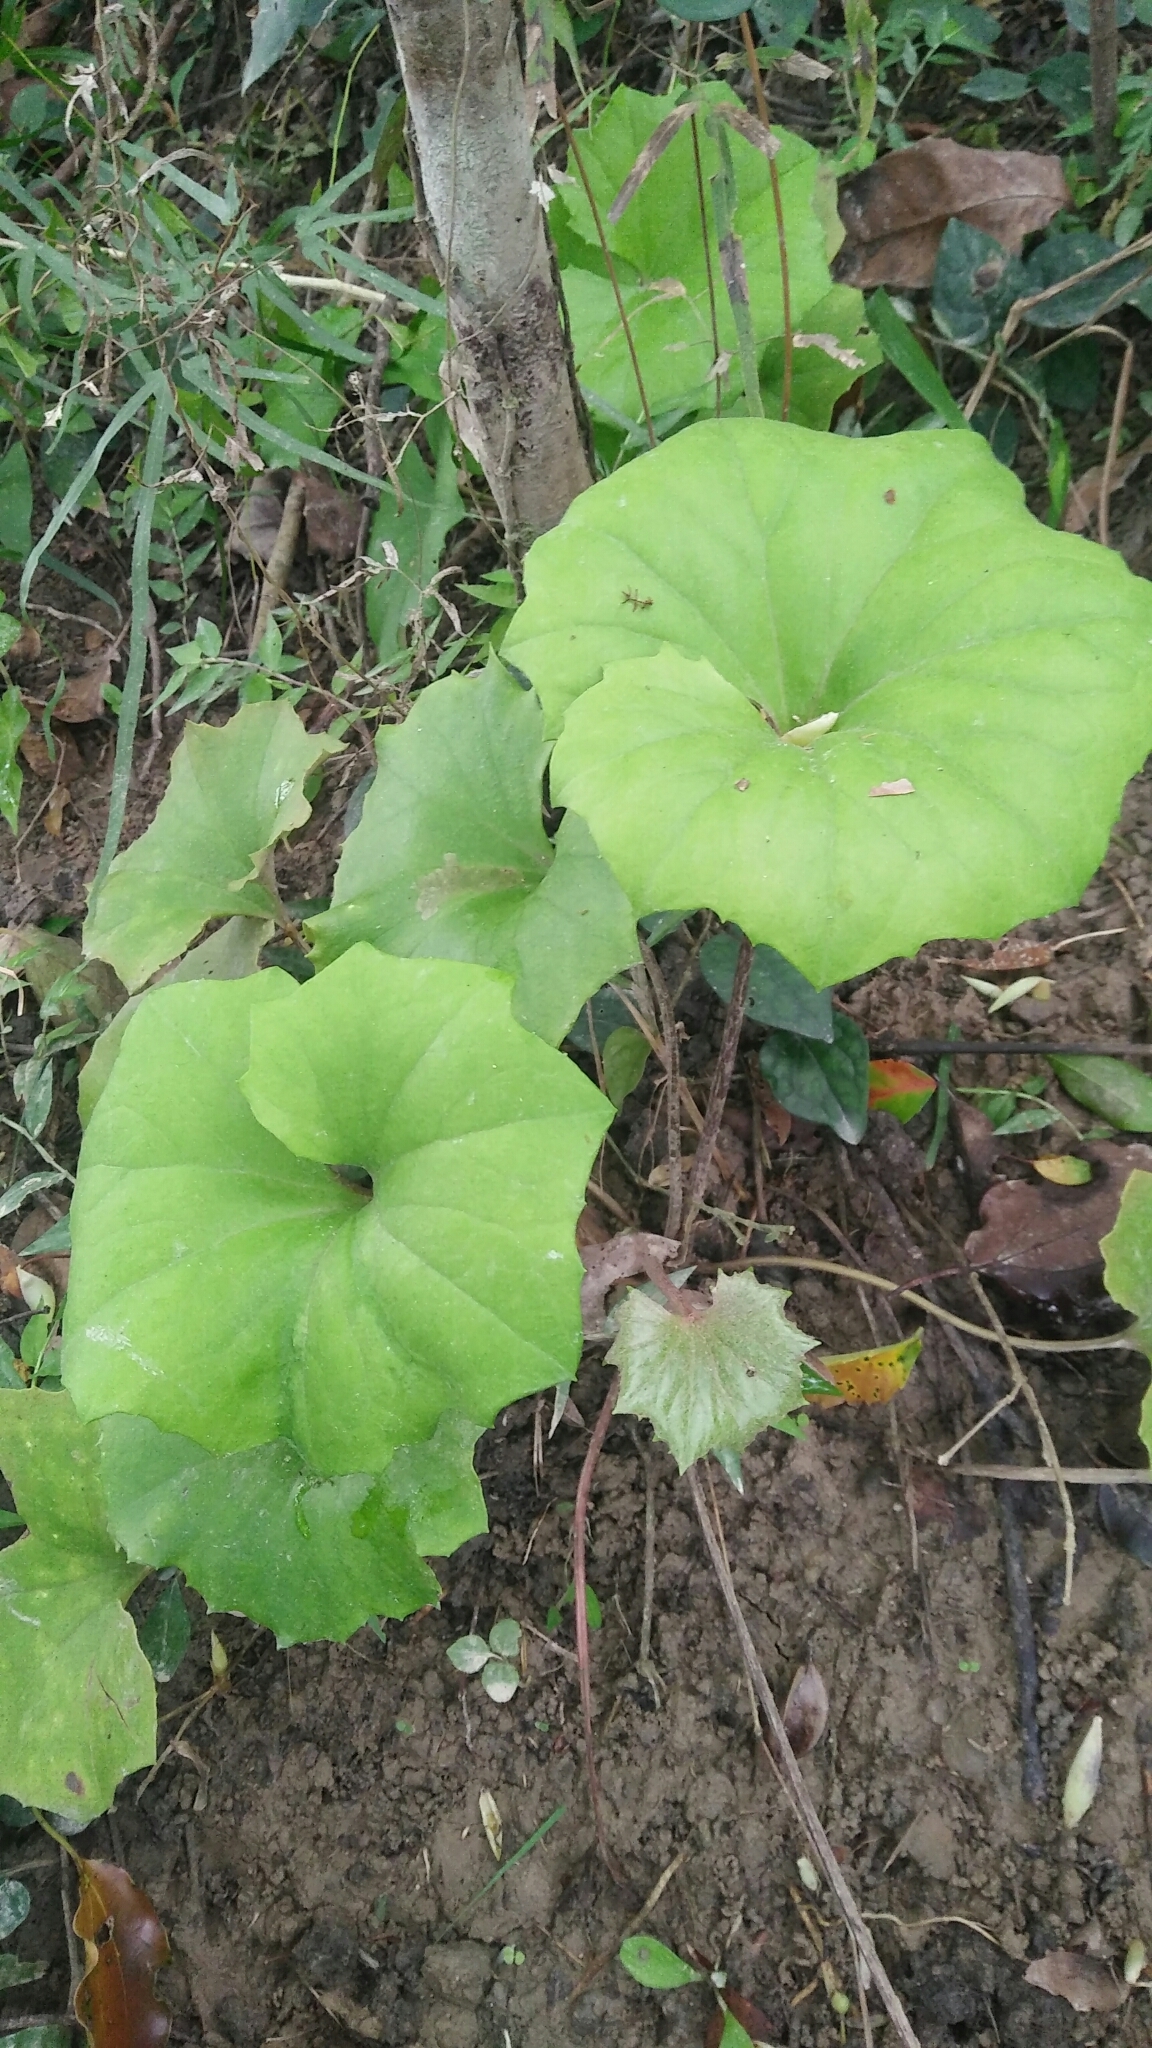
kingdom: Plantae
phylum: Tracheophyta
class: Magnoliopsida
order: Asterales
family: Asteraceae
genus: Farfugium
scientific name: Farfugium japonicum
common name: Leopardplant
